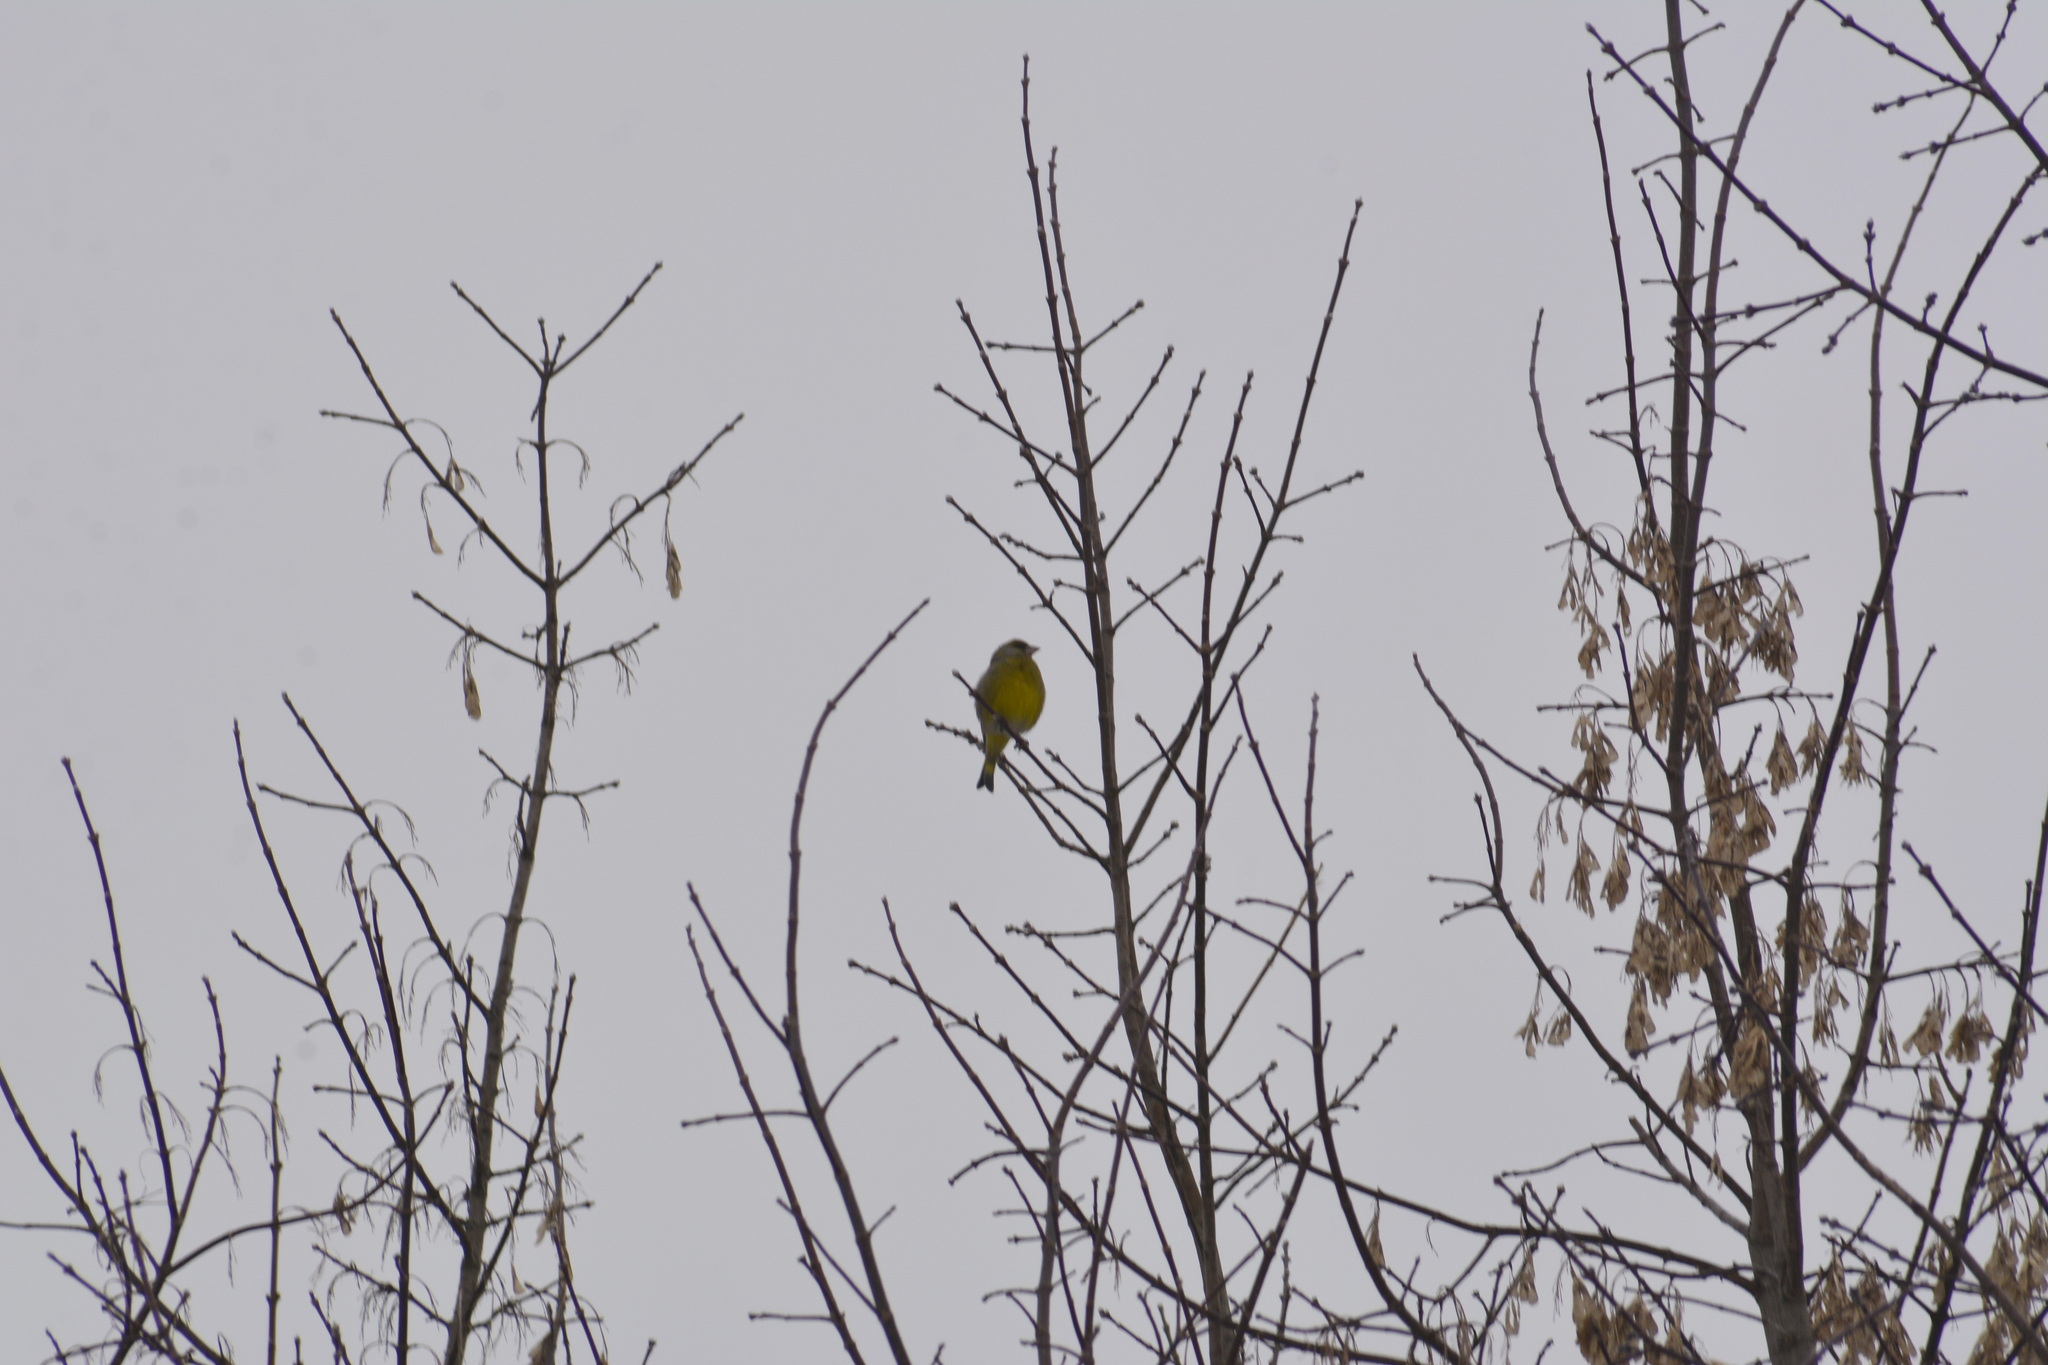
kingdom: Plantae
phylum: Tracheophyta
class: Liliopsida
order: Poales
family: Poaceae
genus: Chloris
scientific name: Chloris chloris
